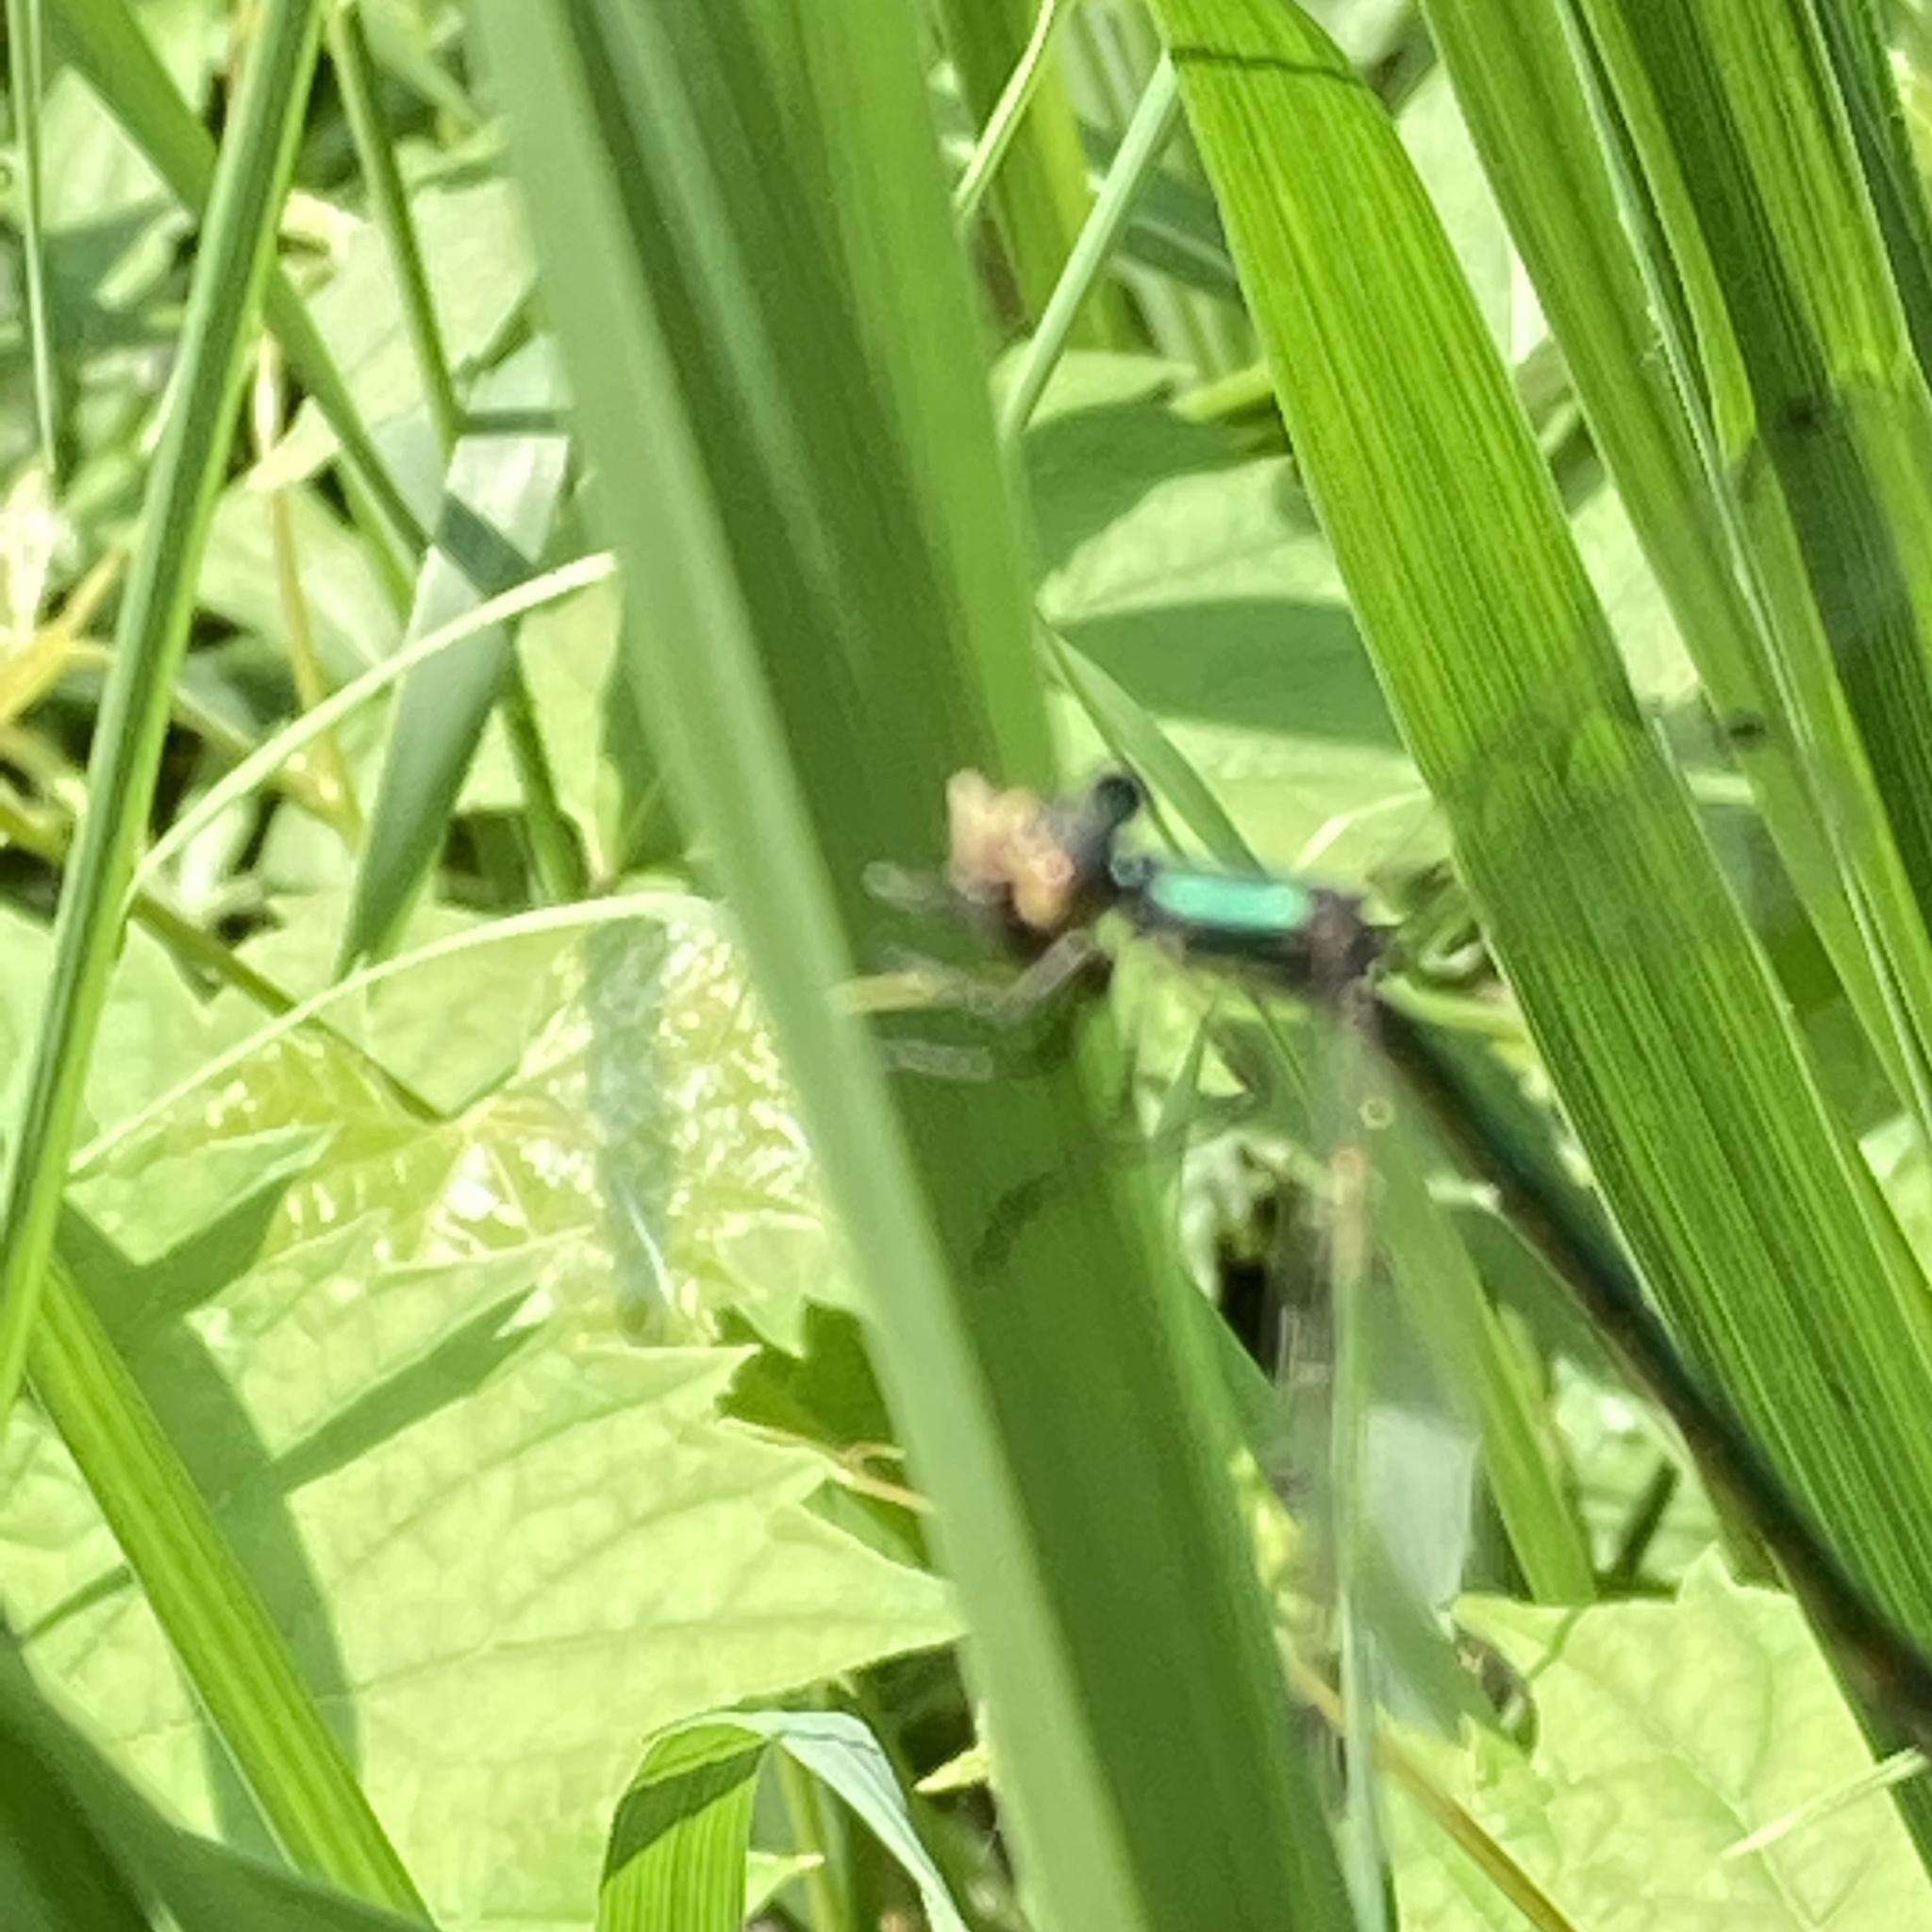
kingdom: Animalia
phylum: Arthropoda
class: Insecta
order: Odonata
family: Lestidae
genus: Lestes
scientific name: Lestes dryas
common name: Scarce emerald damselfly
